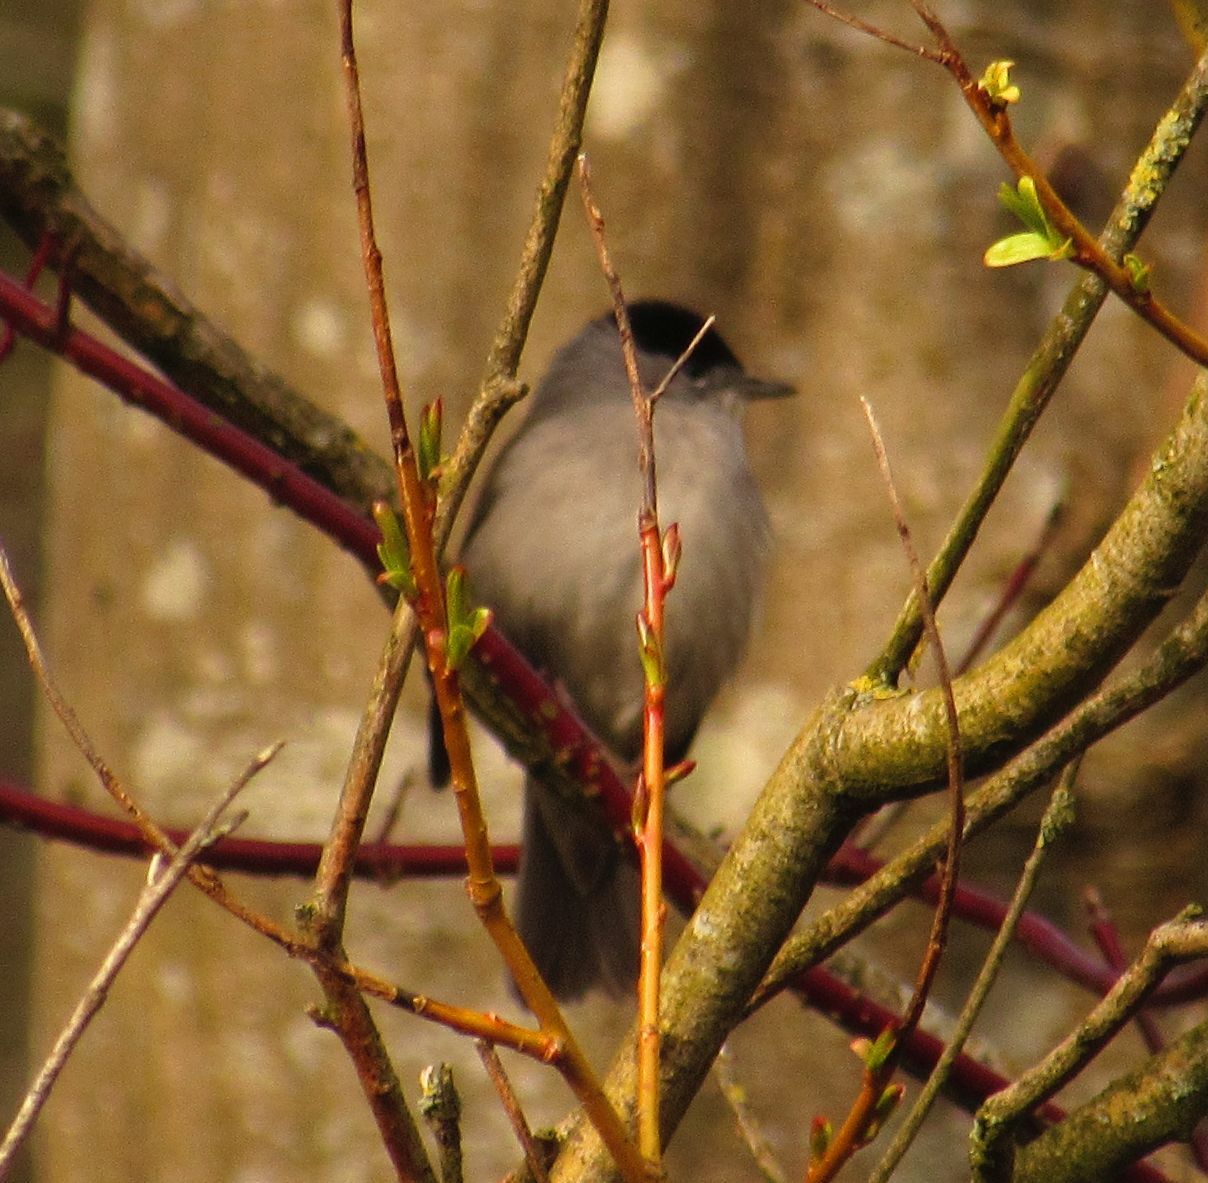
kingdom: Animalia
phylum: Chordata
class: Aves
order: Passeriformes
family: Sylviidae
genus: Sylvia
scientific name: Sylvia atricapilla
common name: Eurasian blackcap
